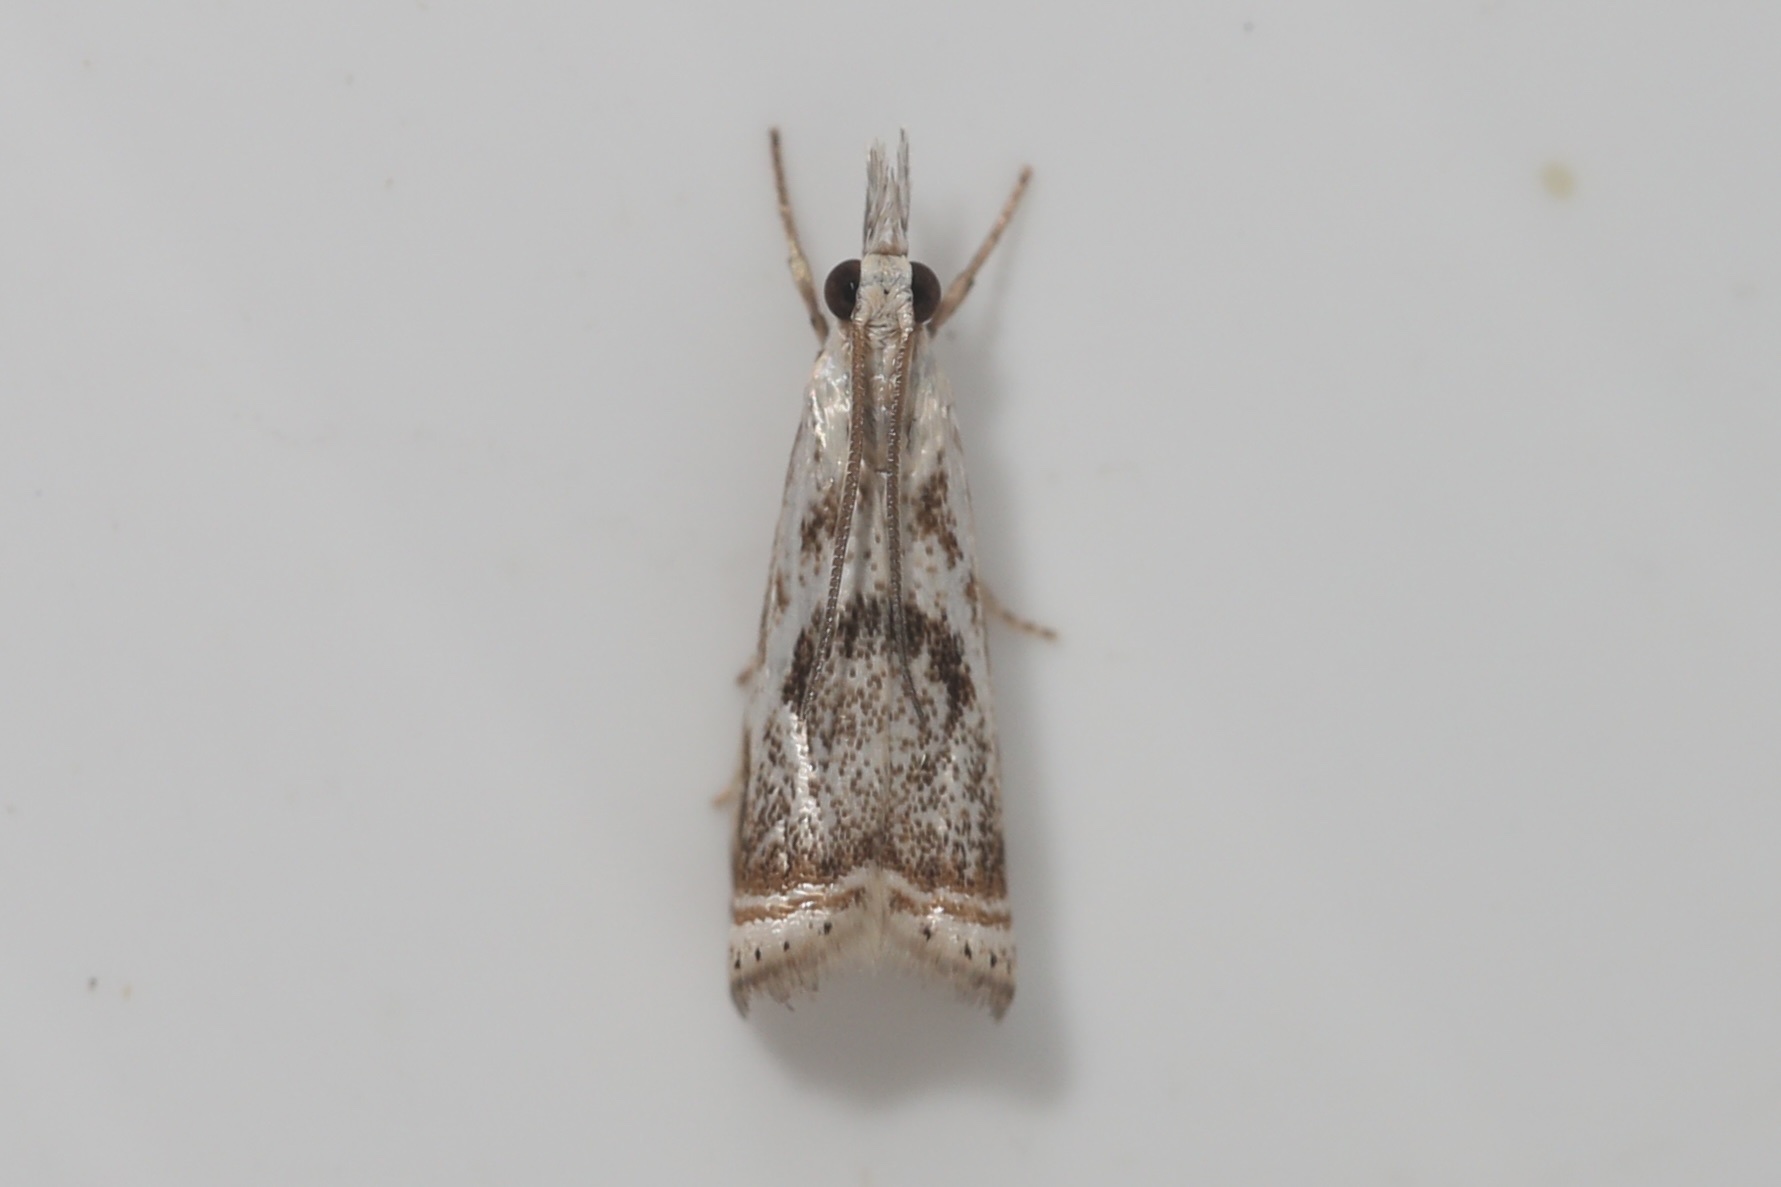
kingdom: Animalia
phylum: Arthropoda
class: Insecta
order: Lepidoptera
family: Crambidae
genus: Microcrambus
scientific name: Microcrambus elegans
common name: Elegant grass-veneer
